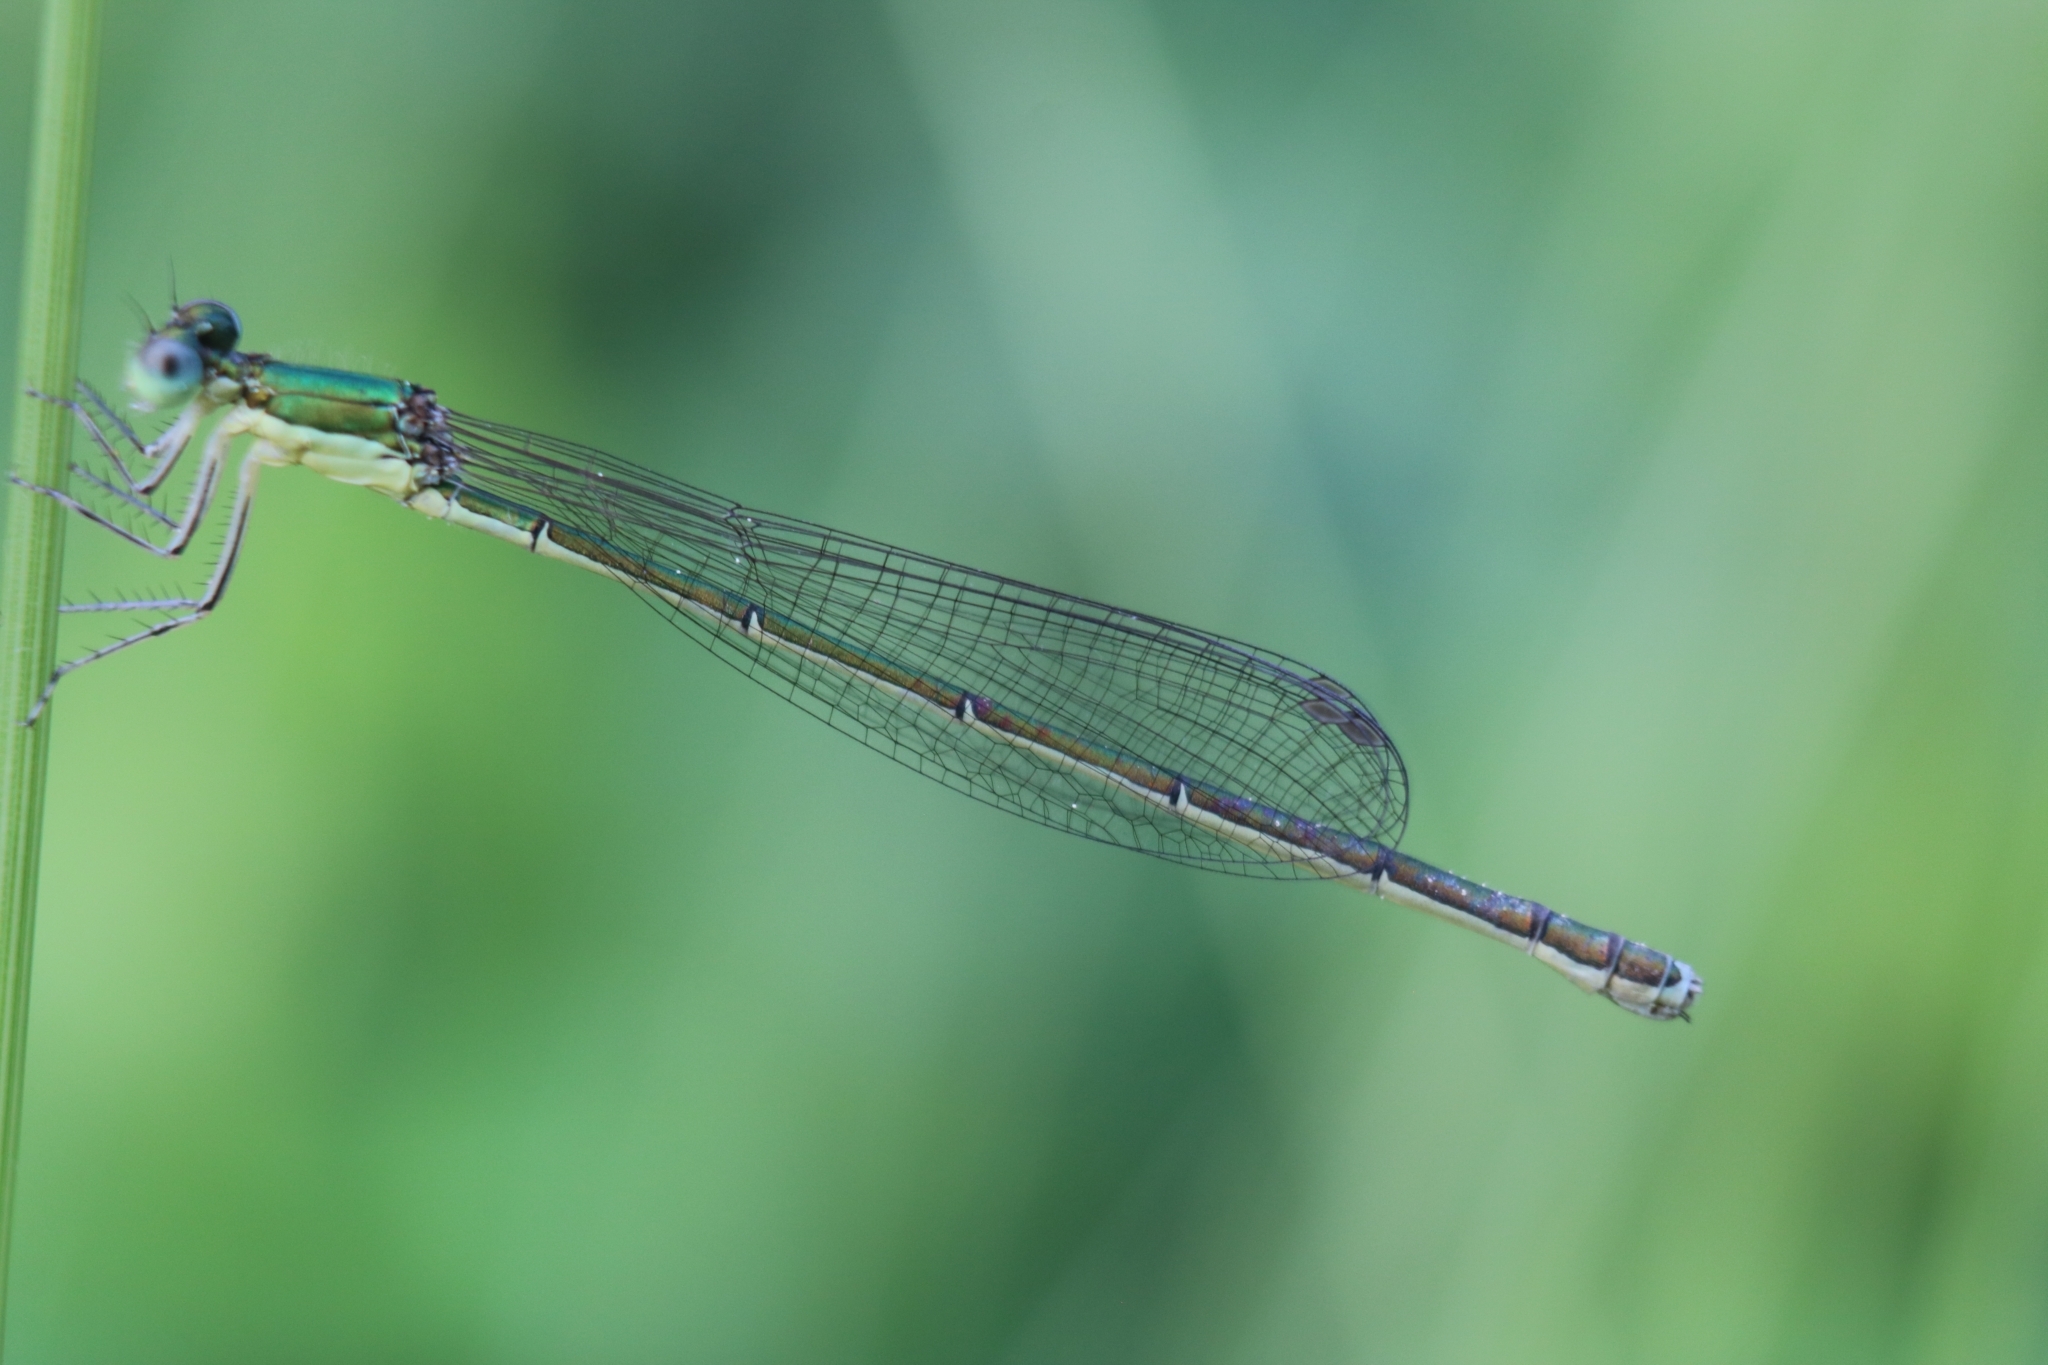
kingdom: Animalia
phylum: Arthropoda
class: Insecta
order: Odonata
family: Coenagrionidae
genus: Nehalennia
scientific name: Nehalennia irene
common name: Sedge sprite
